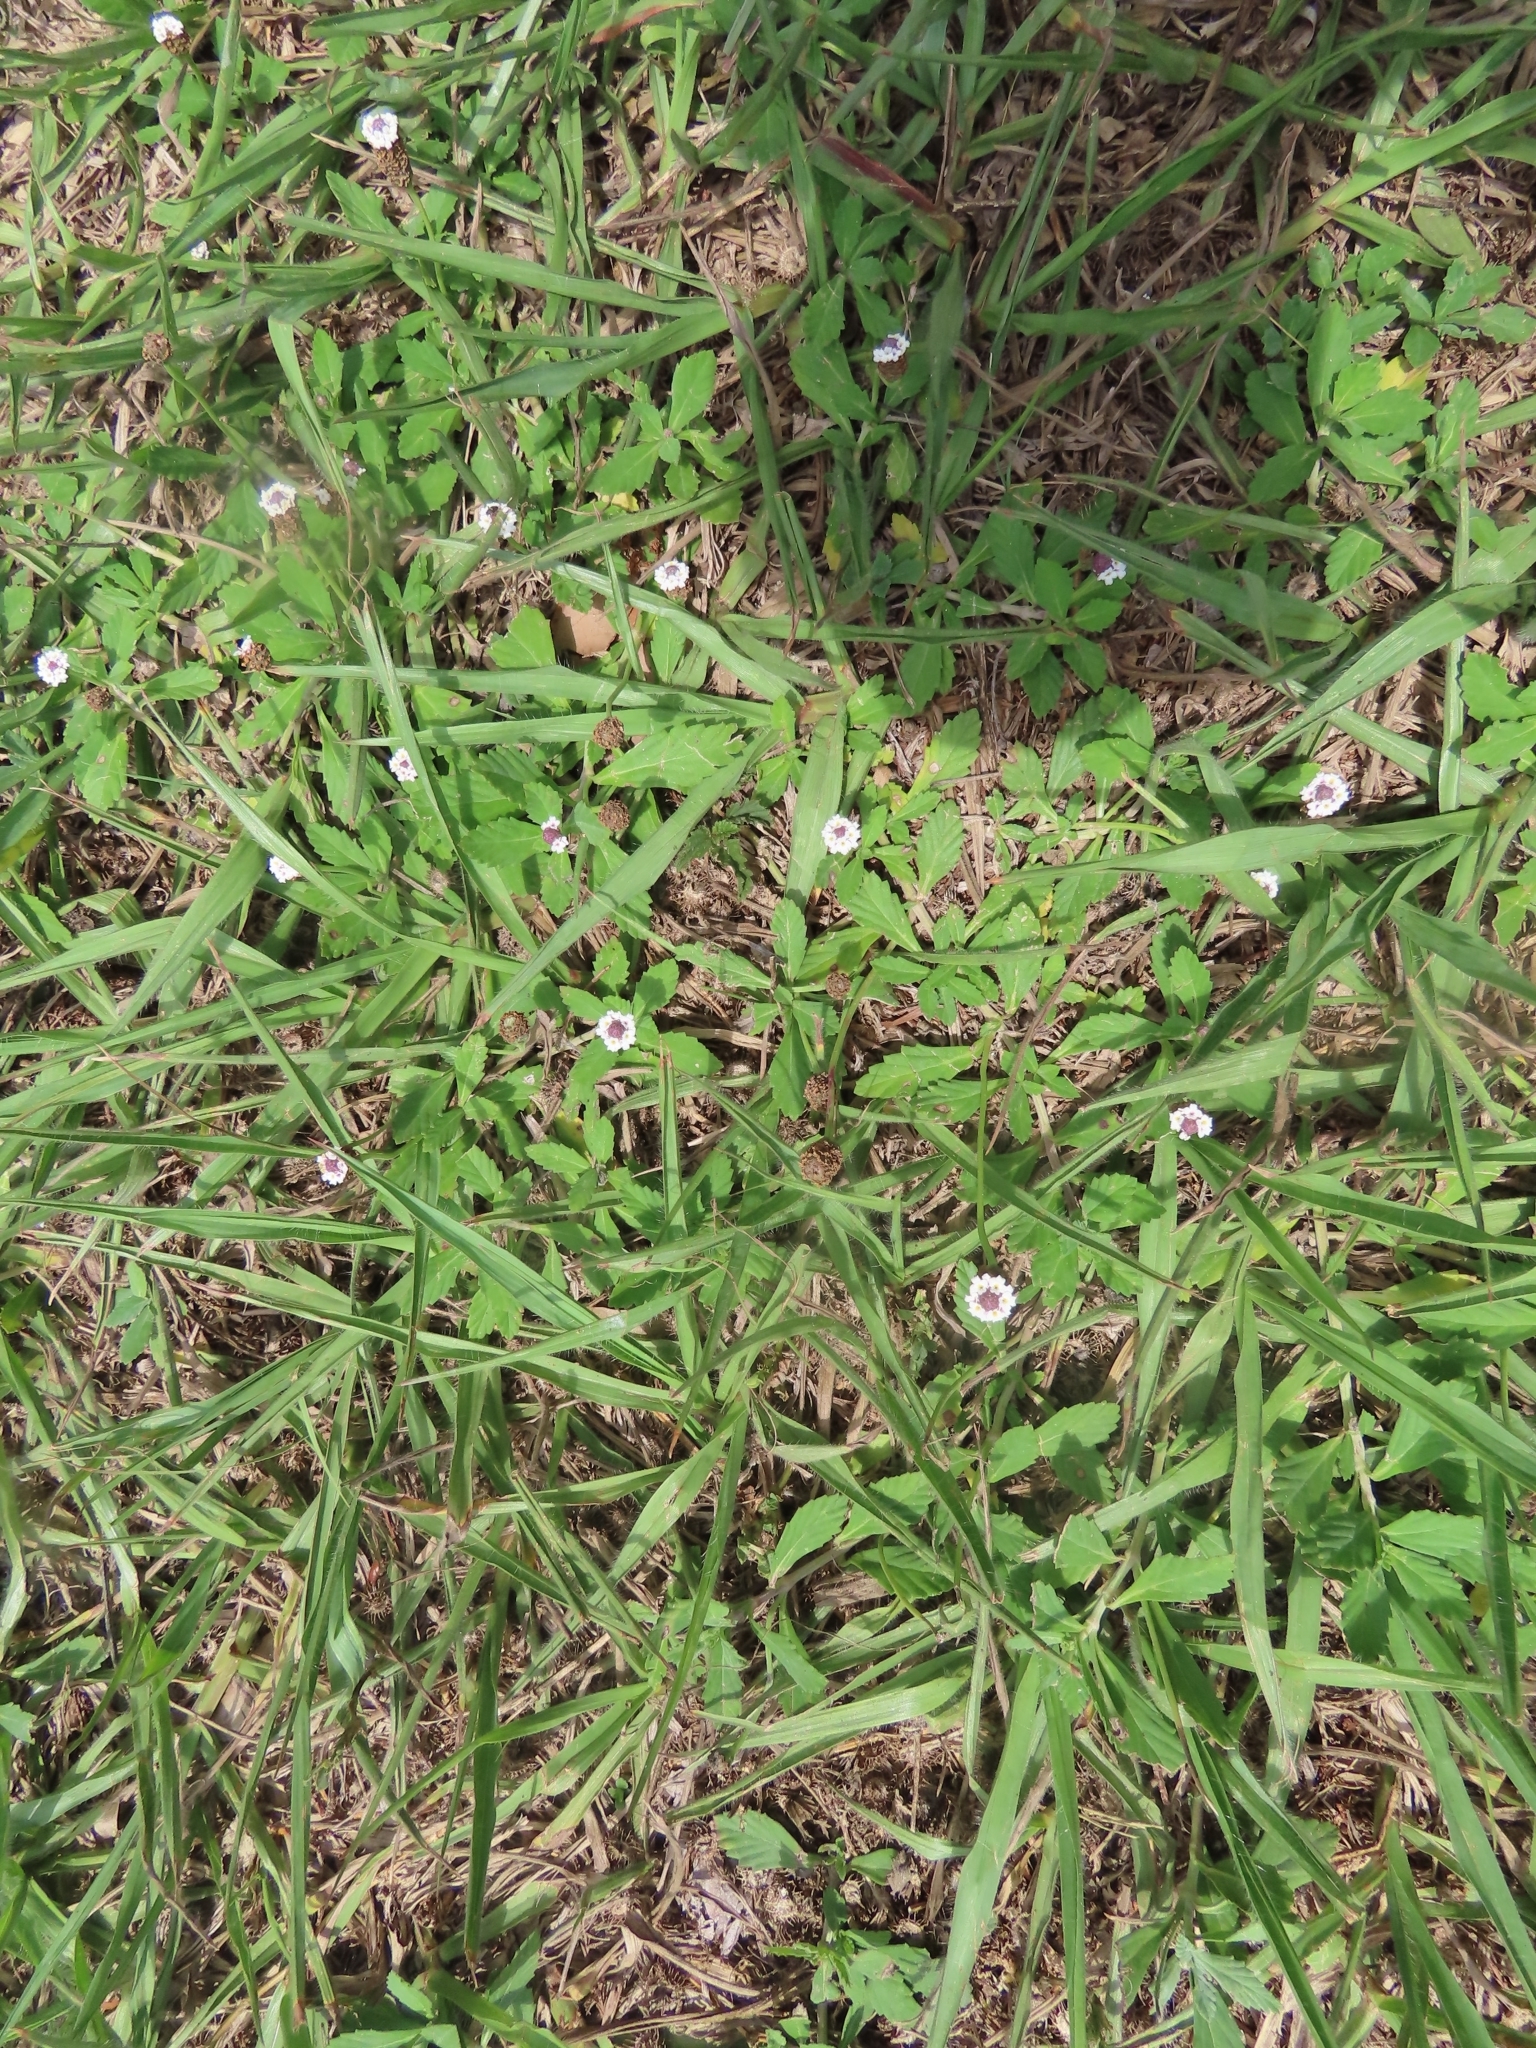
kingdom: Plantae
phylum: Tracheophyta
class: Magnoliopsida
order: Lamiales
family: Verbenaceae
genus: Phyla
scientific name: Phyla nodiflora
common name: Frogfruit
